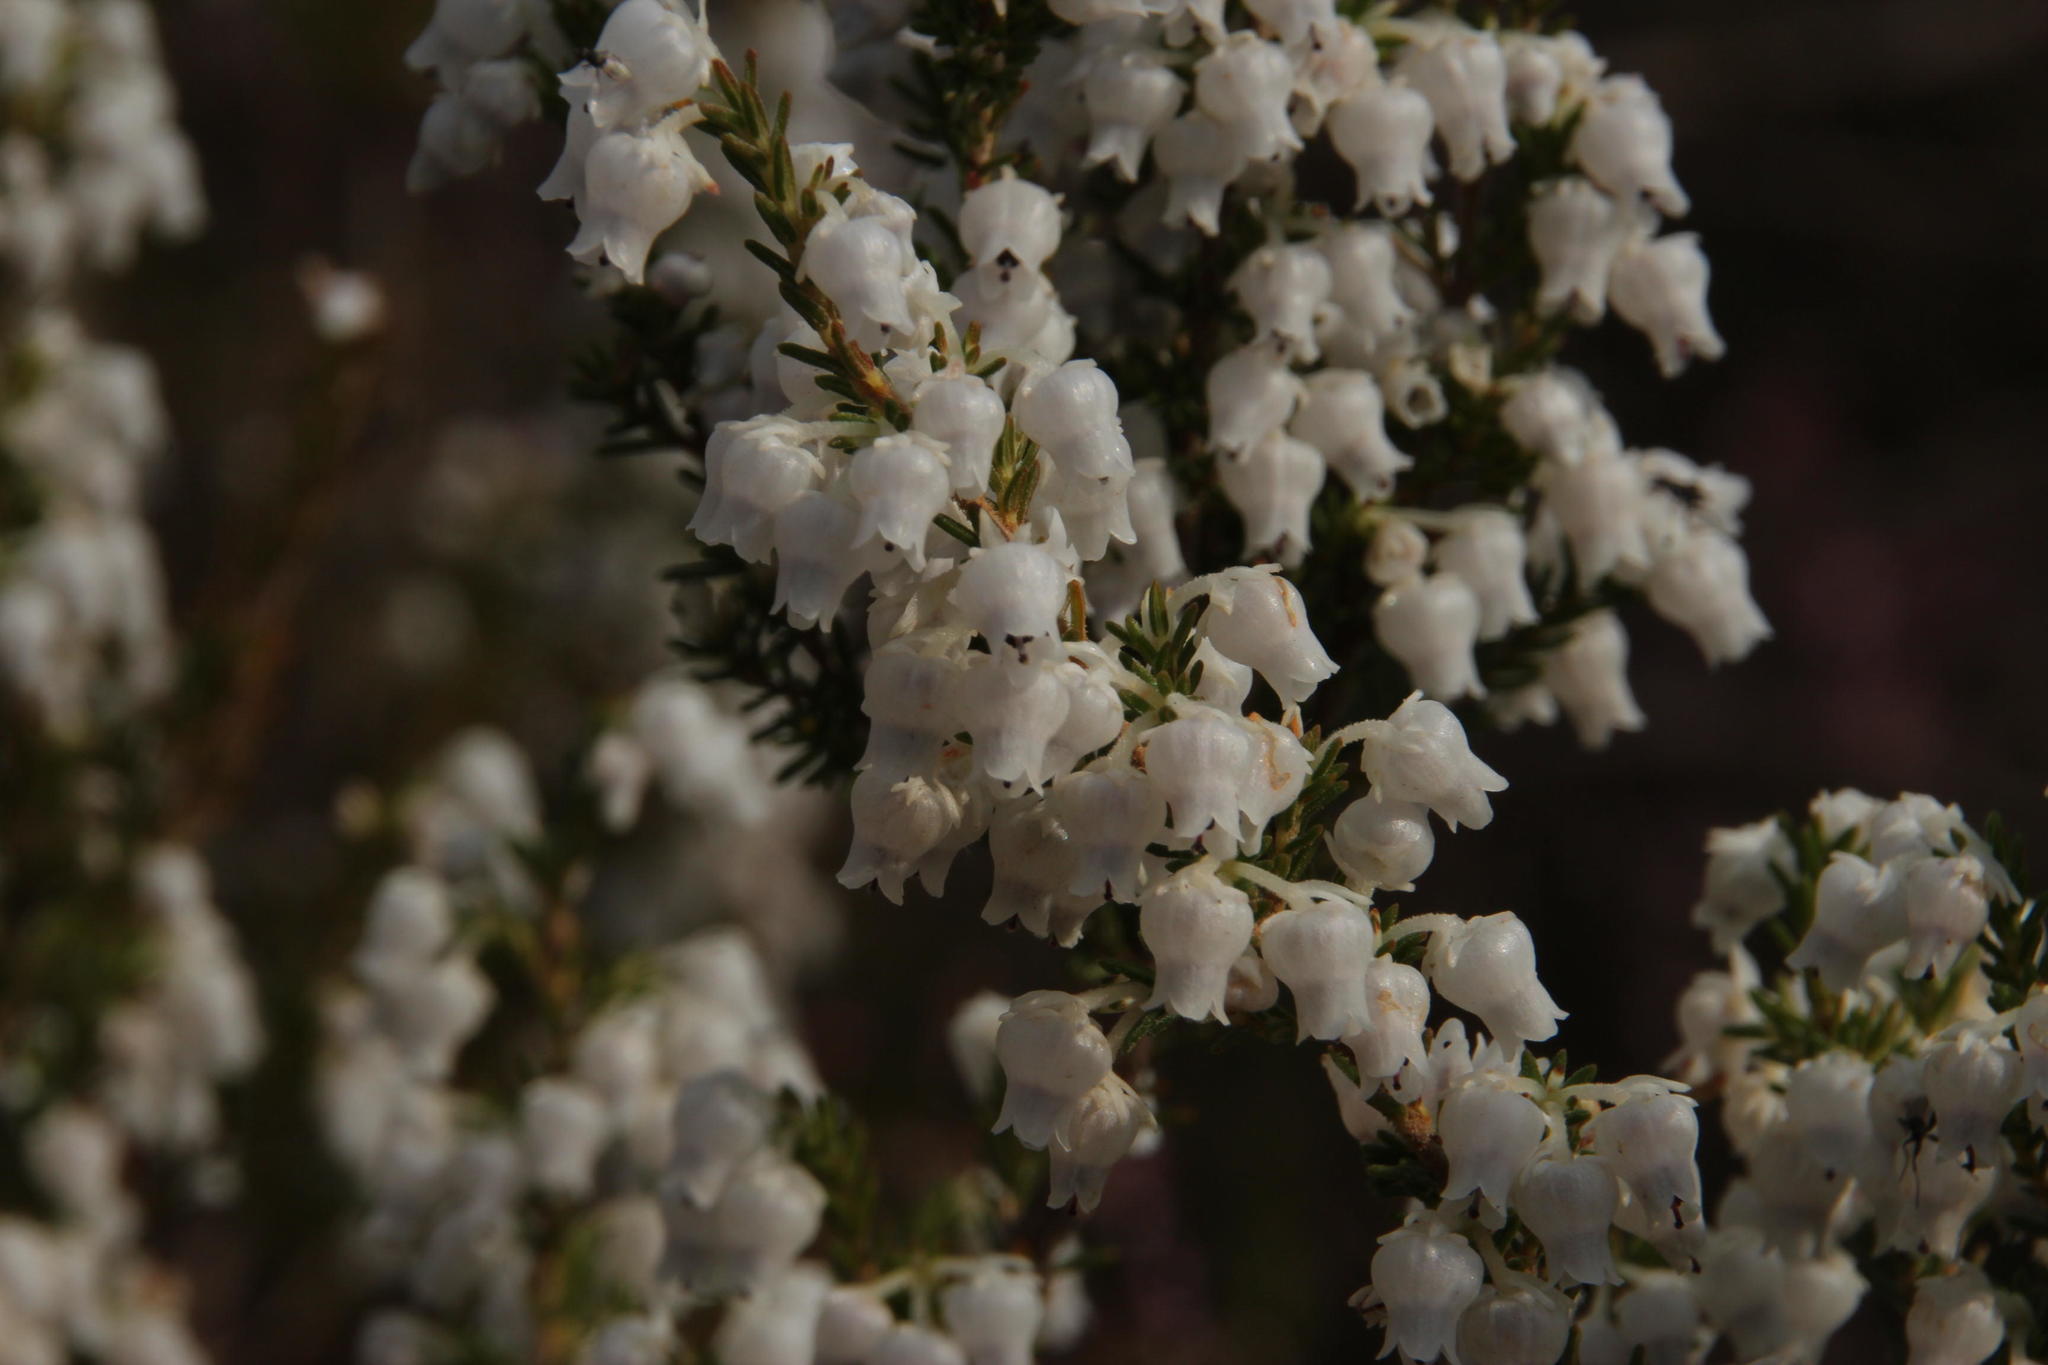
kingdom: Plantae
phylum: Tracheophyta
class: Magnoliopsida
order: Ericales
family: Ericaceae
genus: Erica
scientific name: Erica glomiflora
